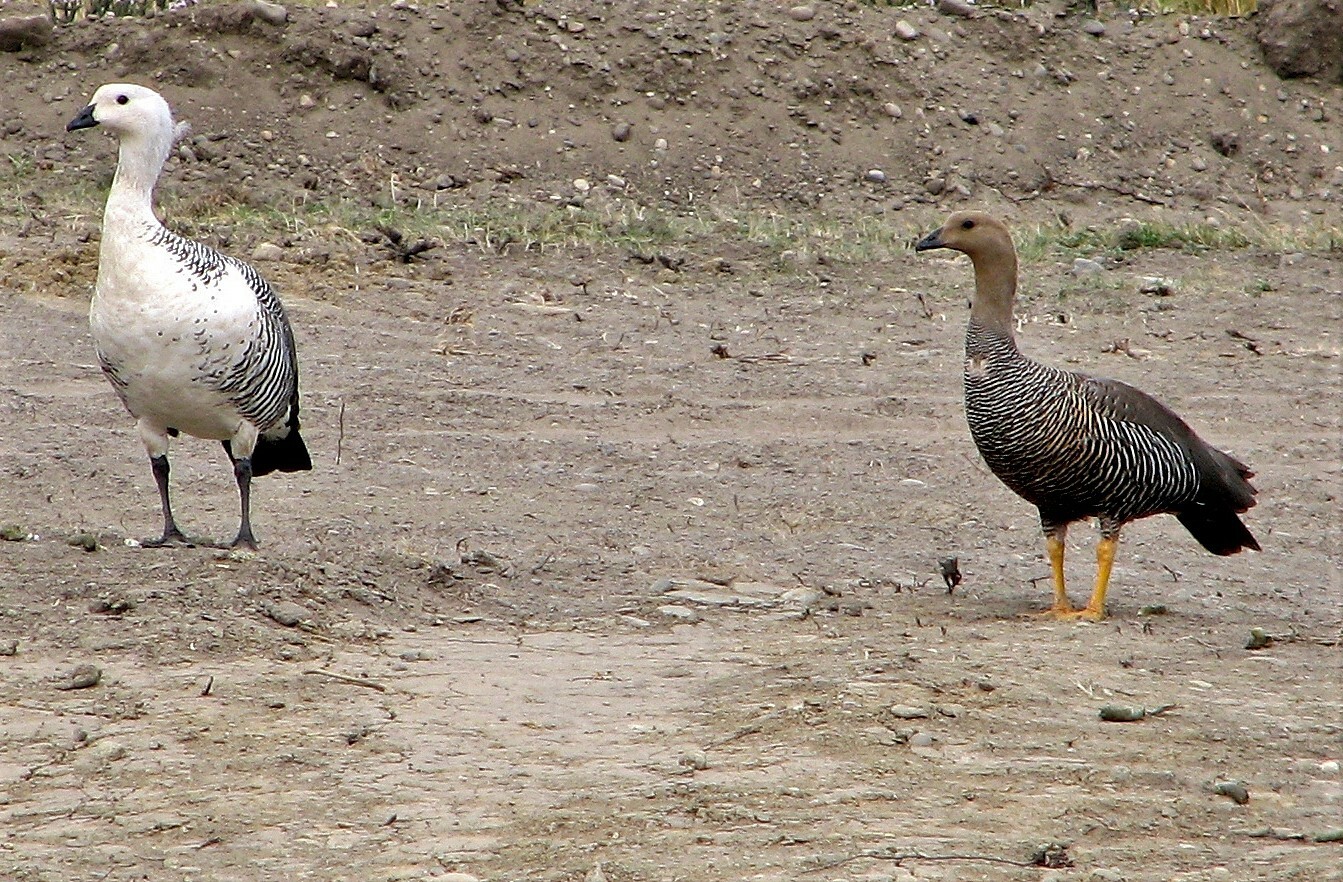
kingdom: Animalia
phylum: Chordata
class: Aves
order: Anseriformes
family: Anatidae
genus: Chloephaga
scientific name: Chloephaga picta
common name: Upland goose
